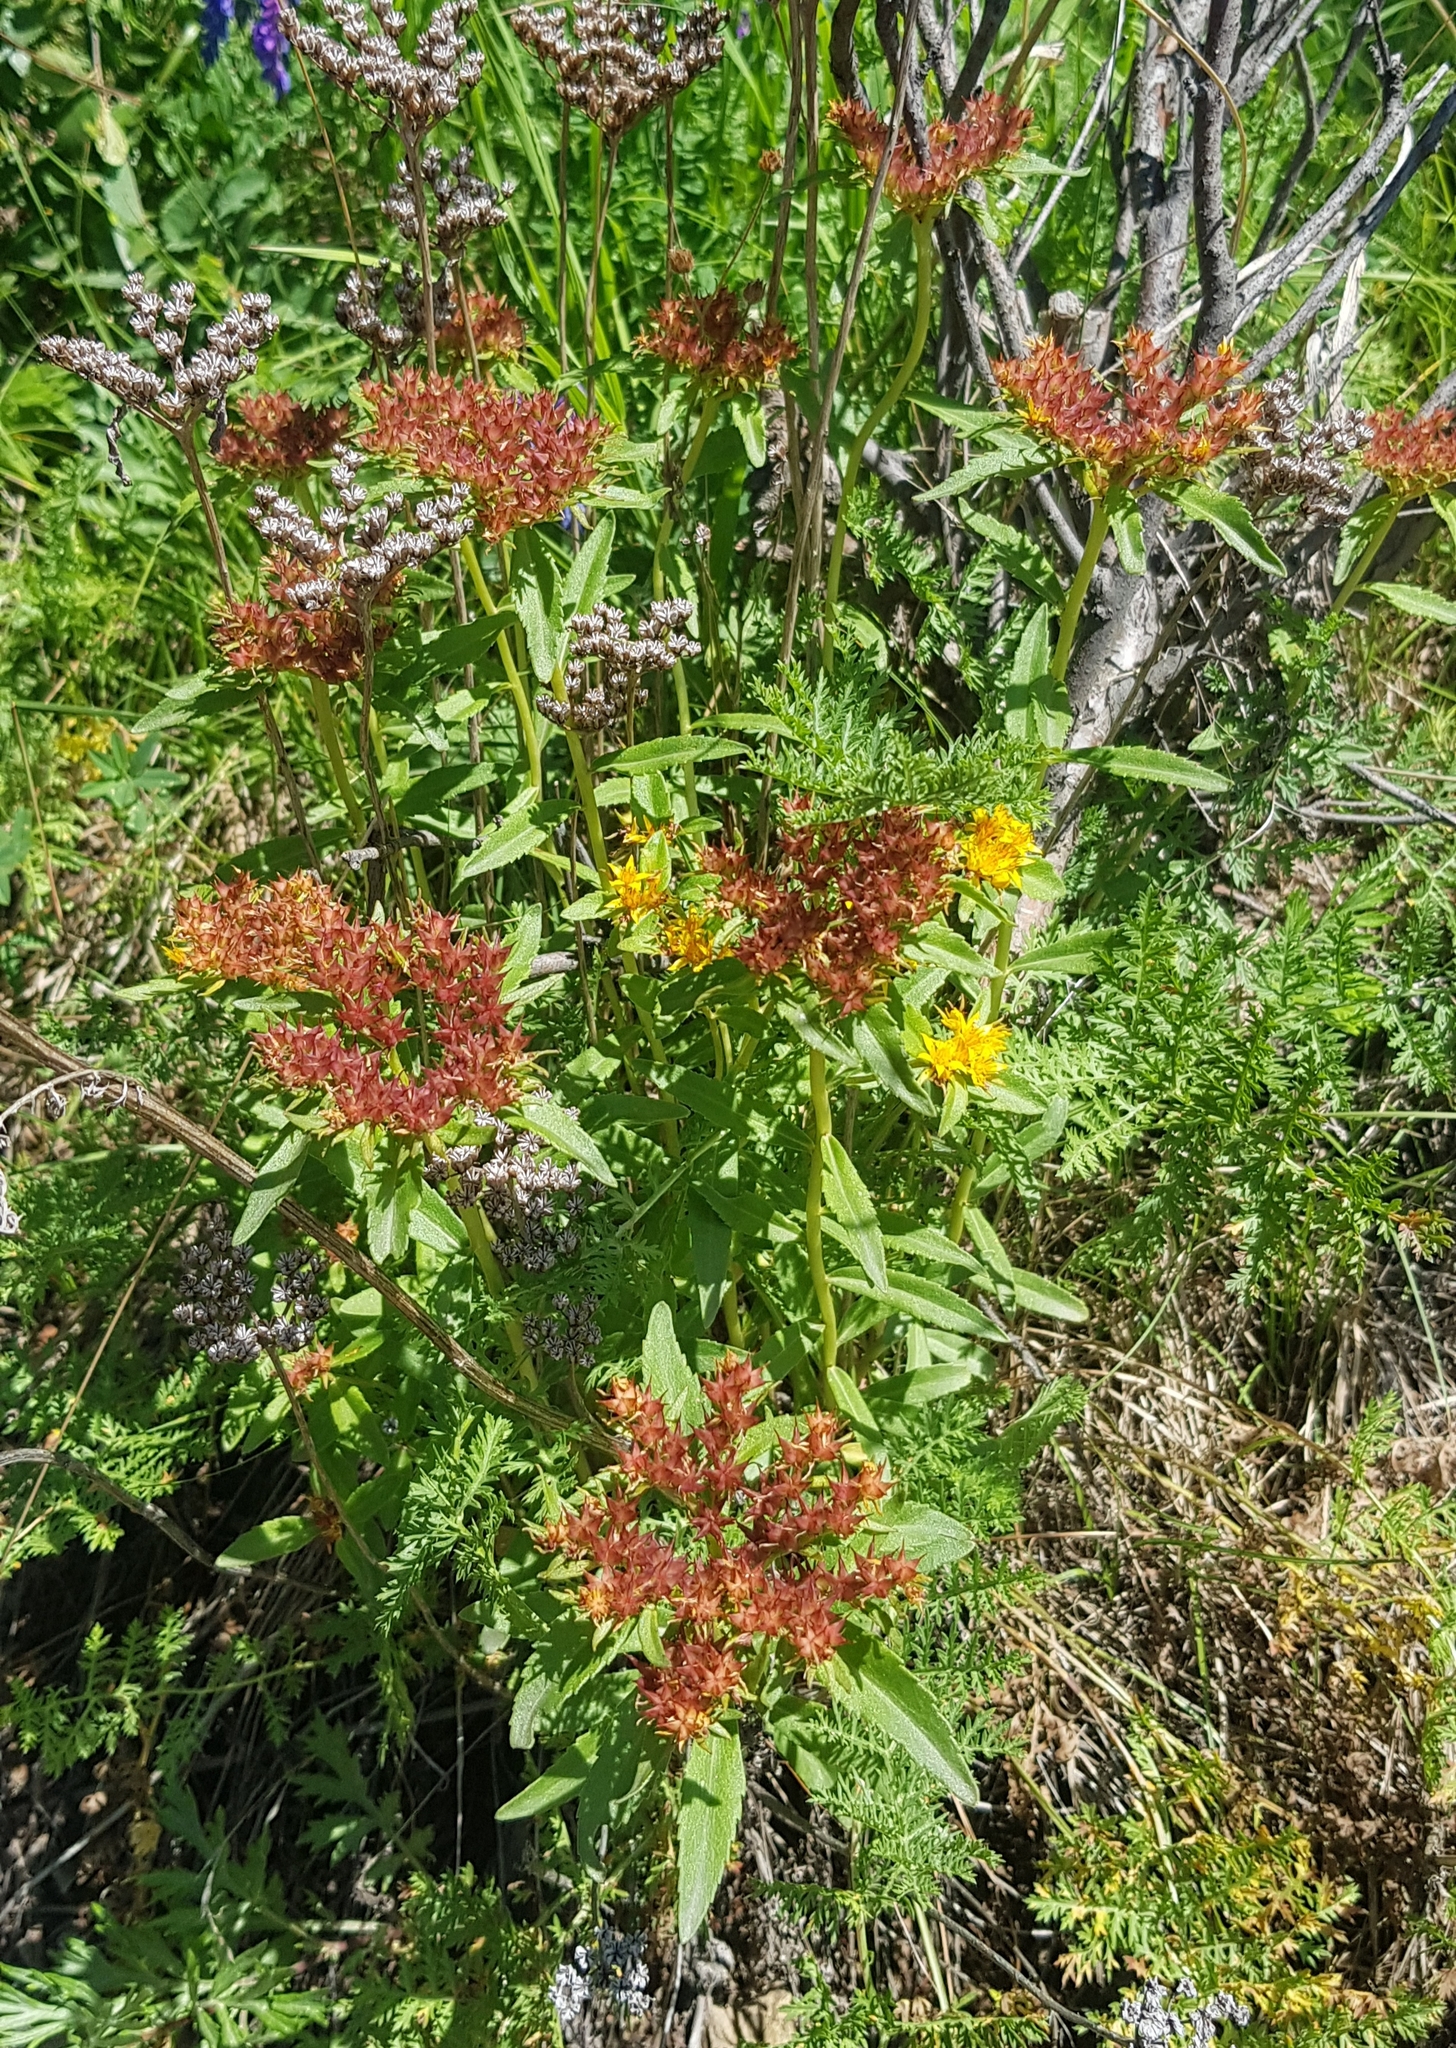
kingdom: Plantae
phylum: Tracheophyta
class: Magnoliopsida
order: Saxifragales
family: Crassulaceae
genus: Phedimus
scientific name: Phedimus aizoon
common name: Orpin aizoon
